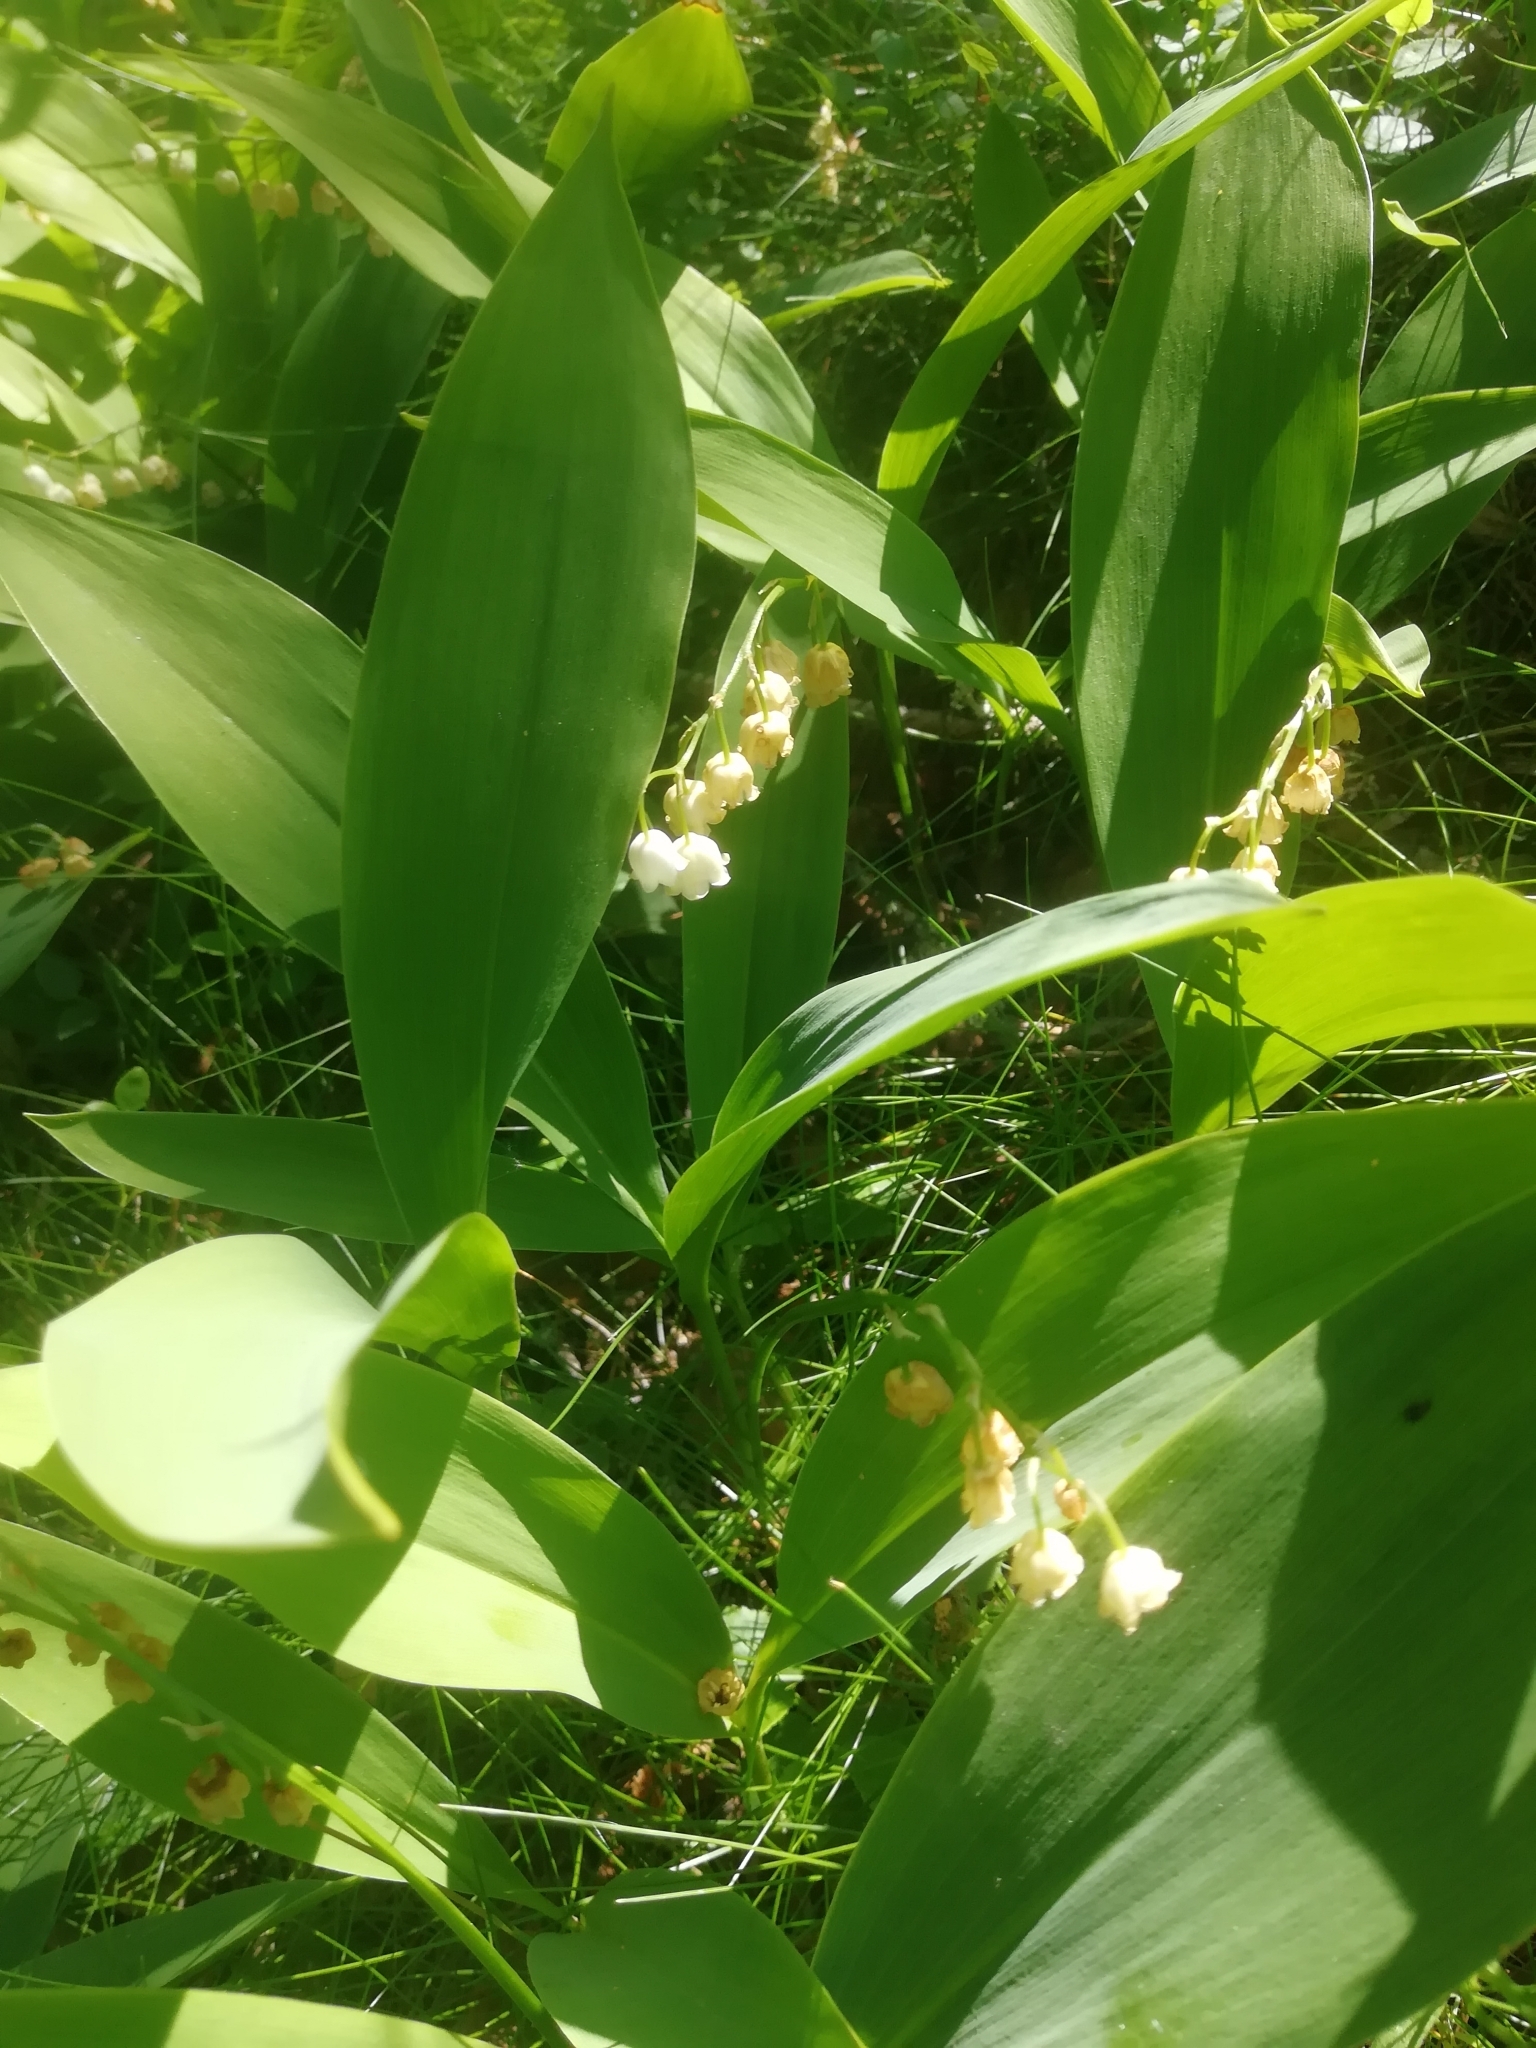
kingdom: Plantae
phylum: Tracheophyta
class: Liliopsida
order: Asparagales
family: Asparagaceae
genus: Convallaria
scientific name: Convallaria majalis
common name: Lily-of-the-valley
